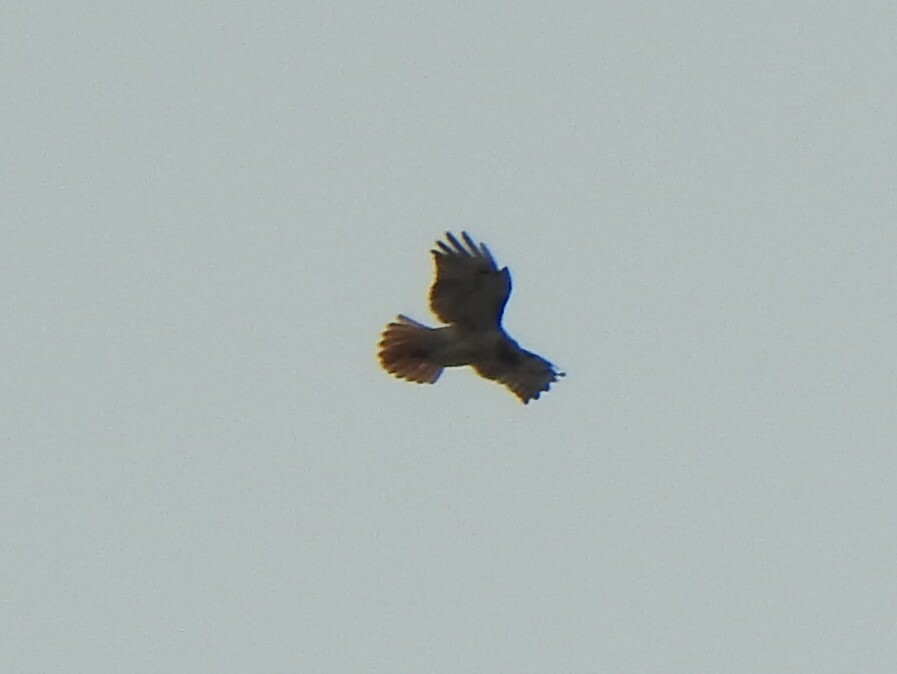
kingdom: Animalia
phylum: Chordata
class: Aves
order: Accipitriformes
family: Accipitridae
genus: Buteo
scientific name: Buteo jamaicensis
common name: Red-tailed hawk
